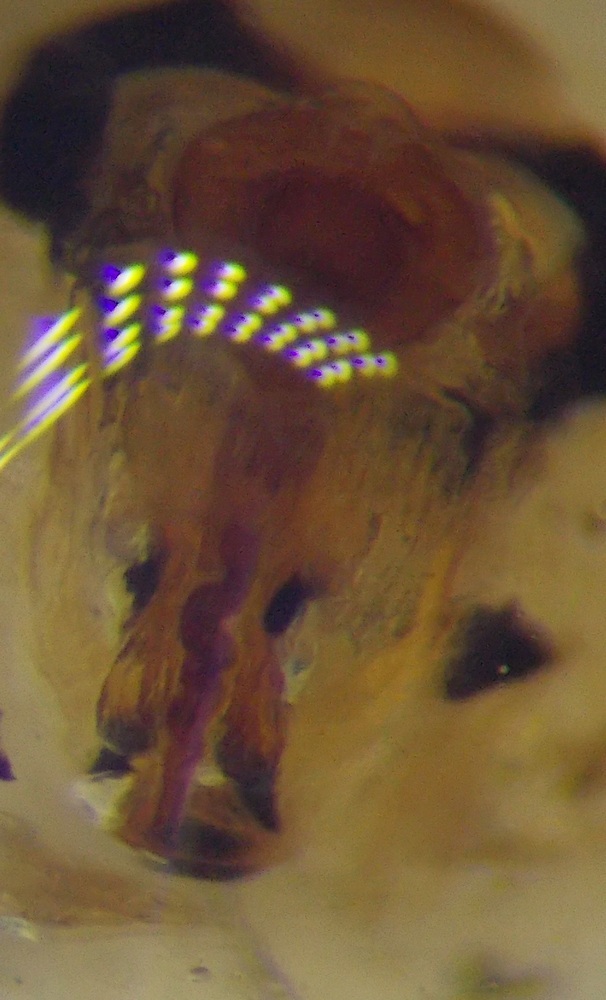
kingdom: Animalia
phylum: Arthropoda
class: Insecta
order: Hemiptera
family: Scutelleridae
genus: Odontotarsus
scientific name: Odontotarsus purpureolineatus
